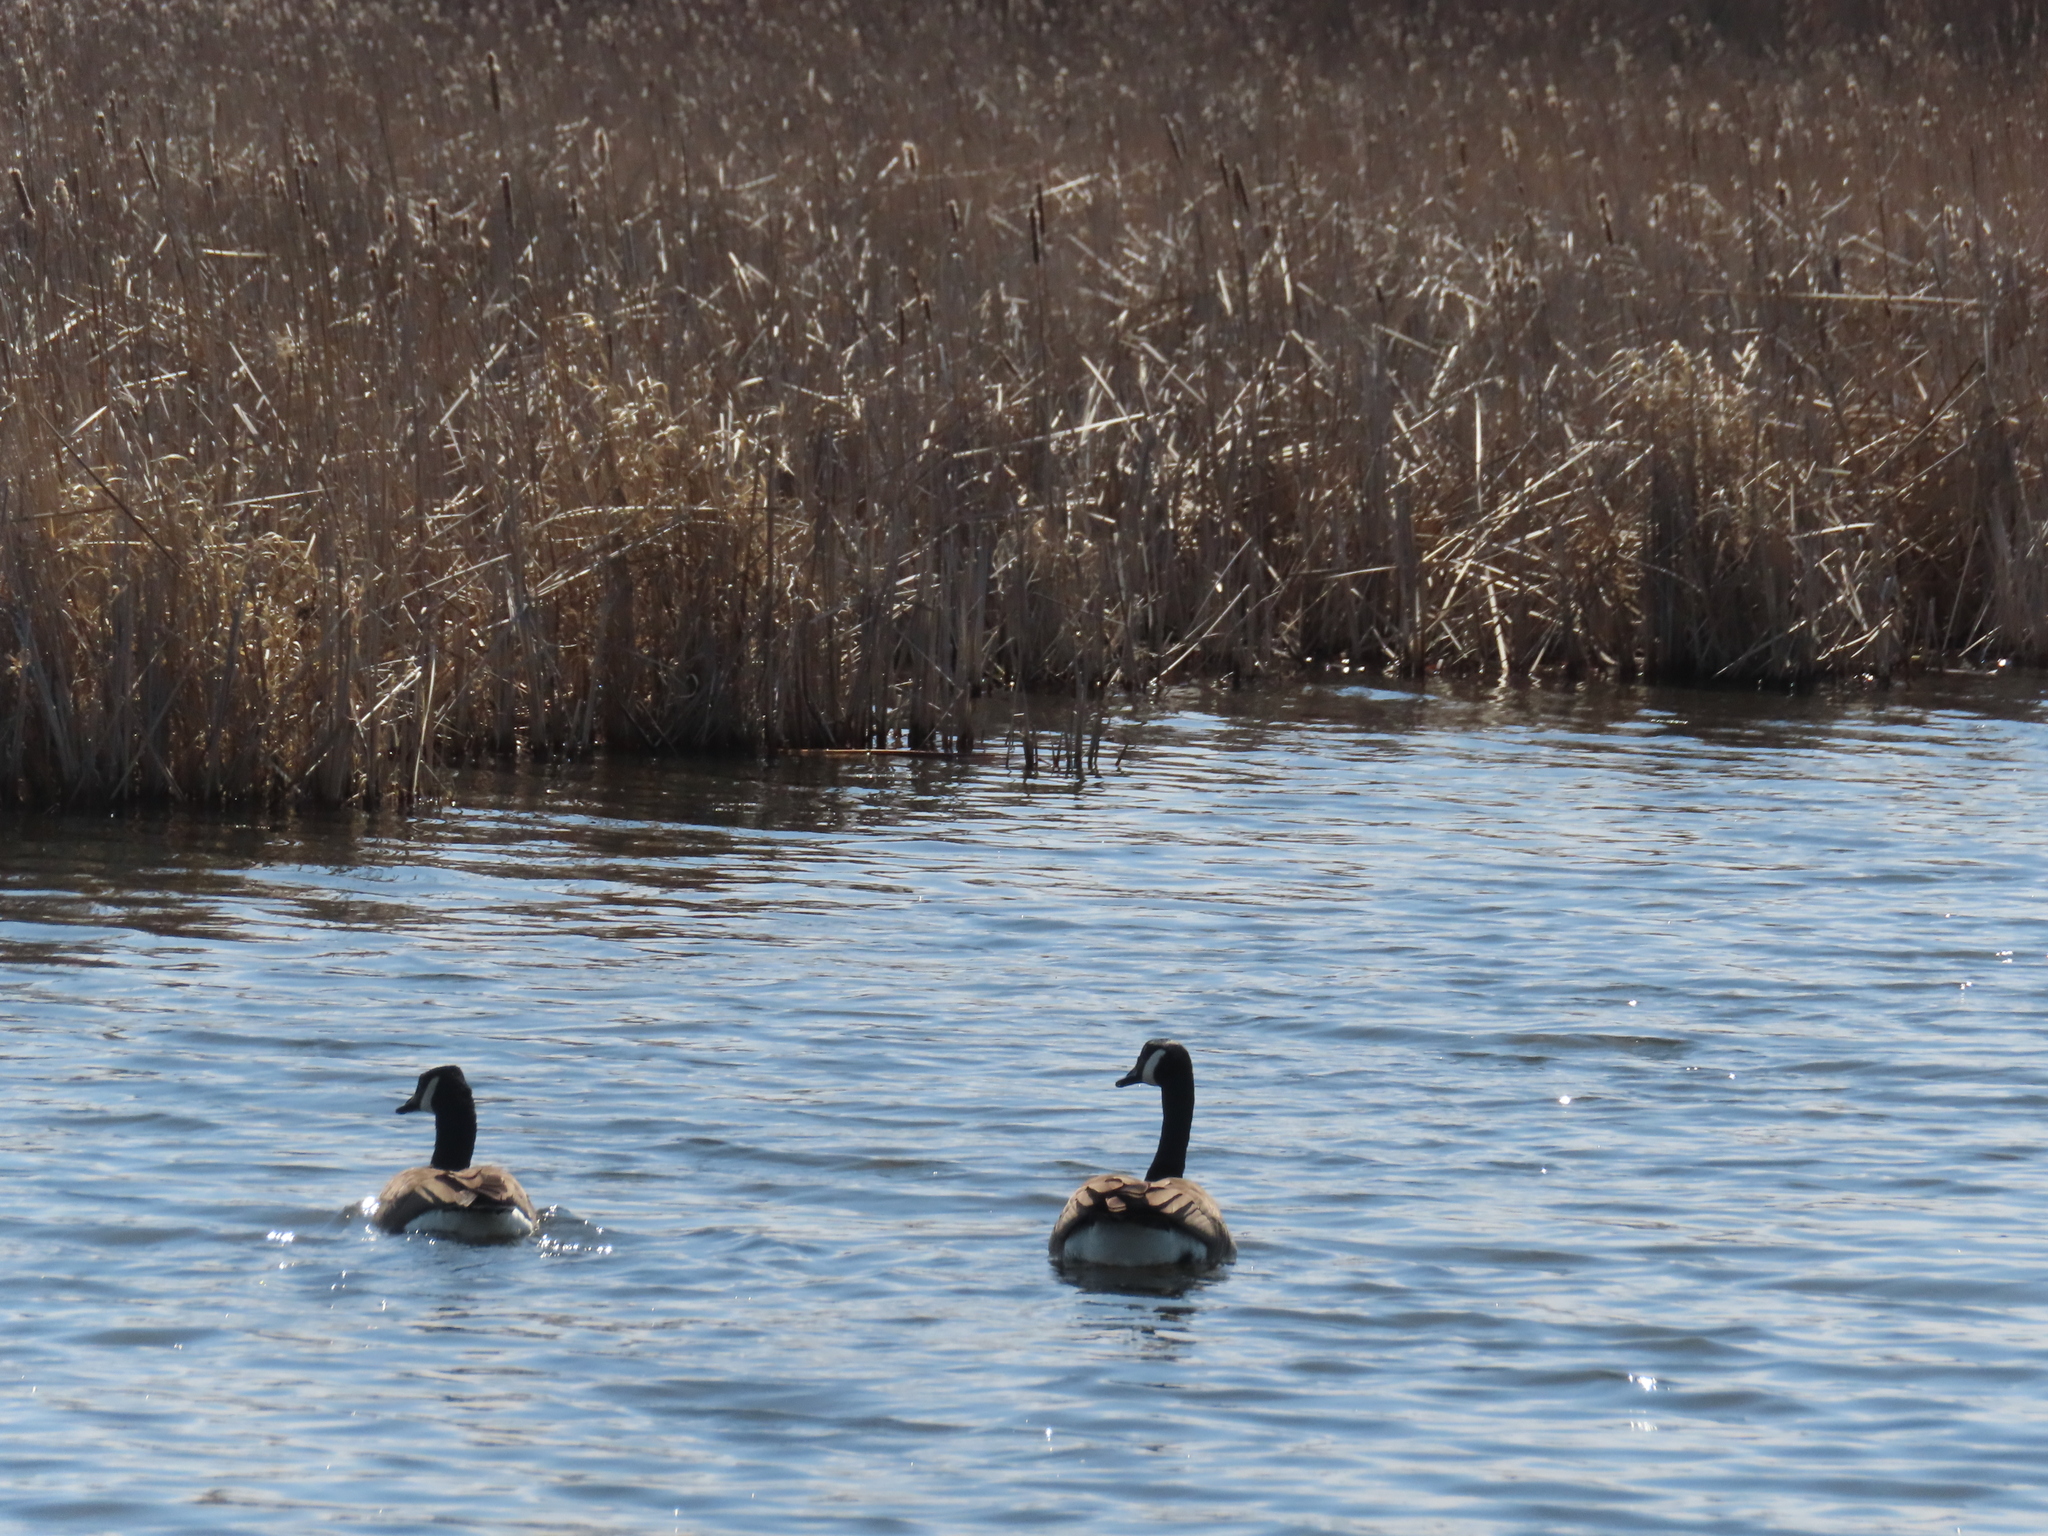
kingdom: Animalia
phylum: Chordata
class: Aves
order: Anseriformes
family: Anatidae
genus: Branta
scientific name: Branta canadensis
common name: Canada goose
